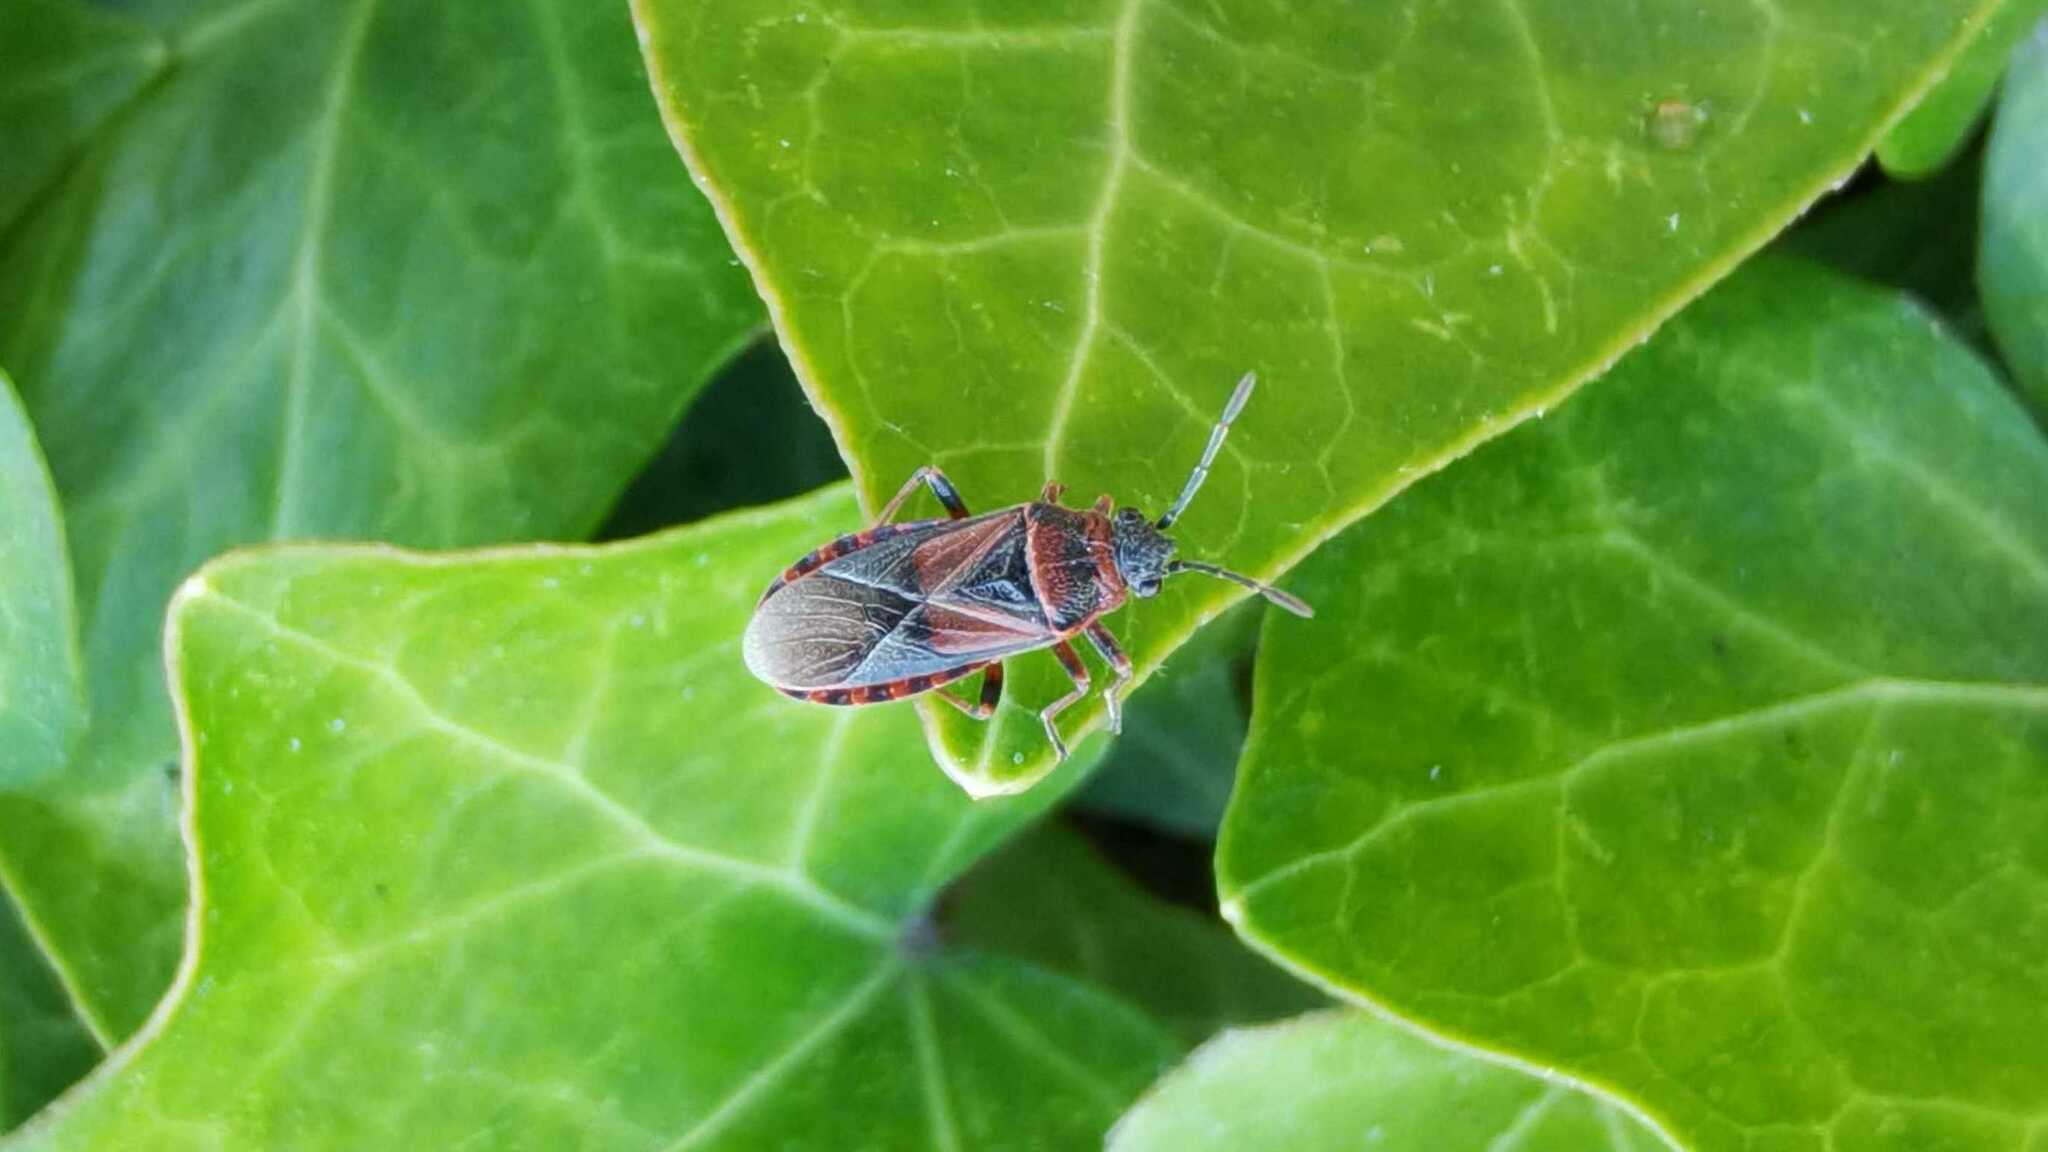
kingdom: Animalia
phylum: Arthropoda
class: Insecta
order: Hemiptera
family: Lygaeidae
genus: Arocatus
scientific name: Arocatus melanocephalus
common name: Lygaeid bug
